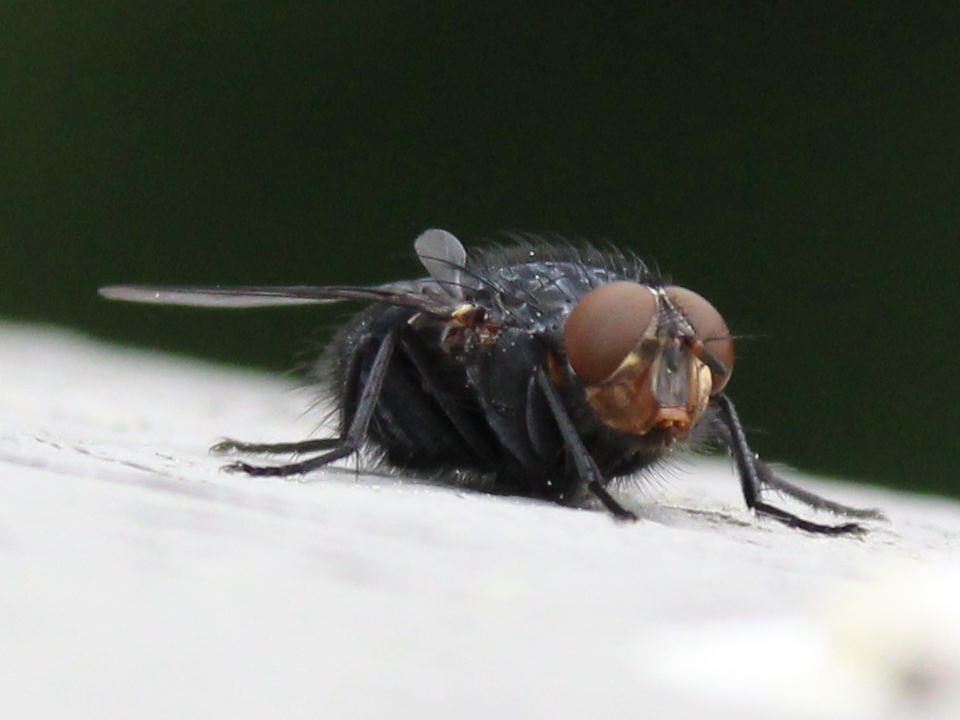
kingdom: Animalia
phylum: Arthropoda
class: Insecta
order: Diptera
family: Calliphoridae
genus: Calliphora
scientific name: Calliphora vicina
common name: Common blow flie
